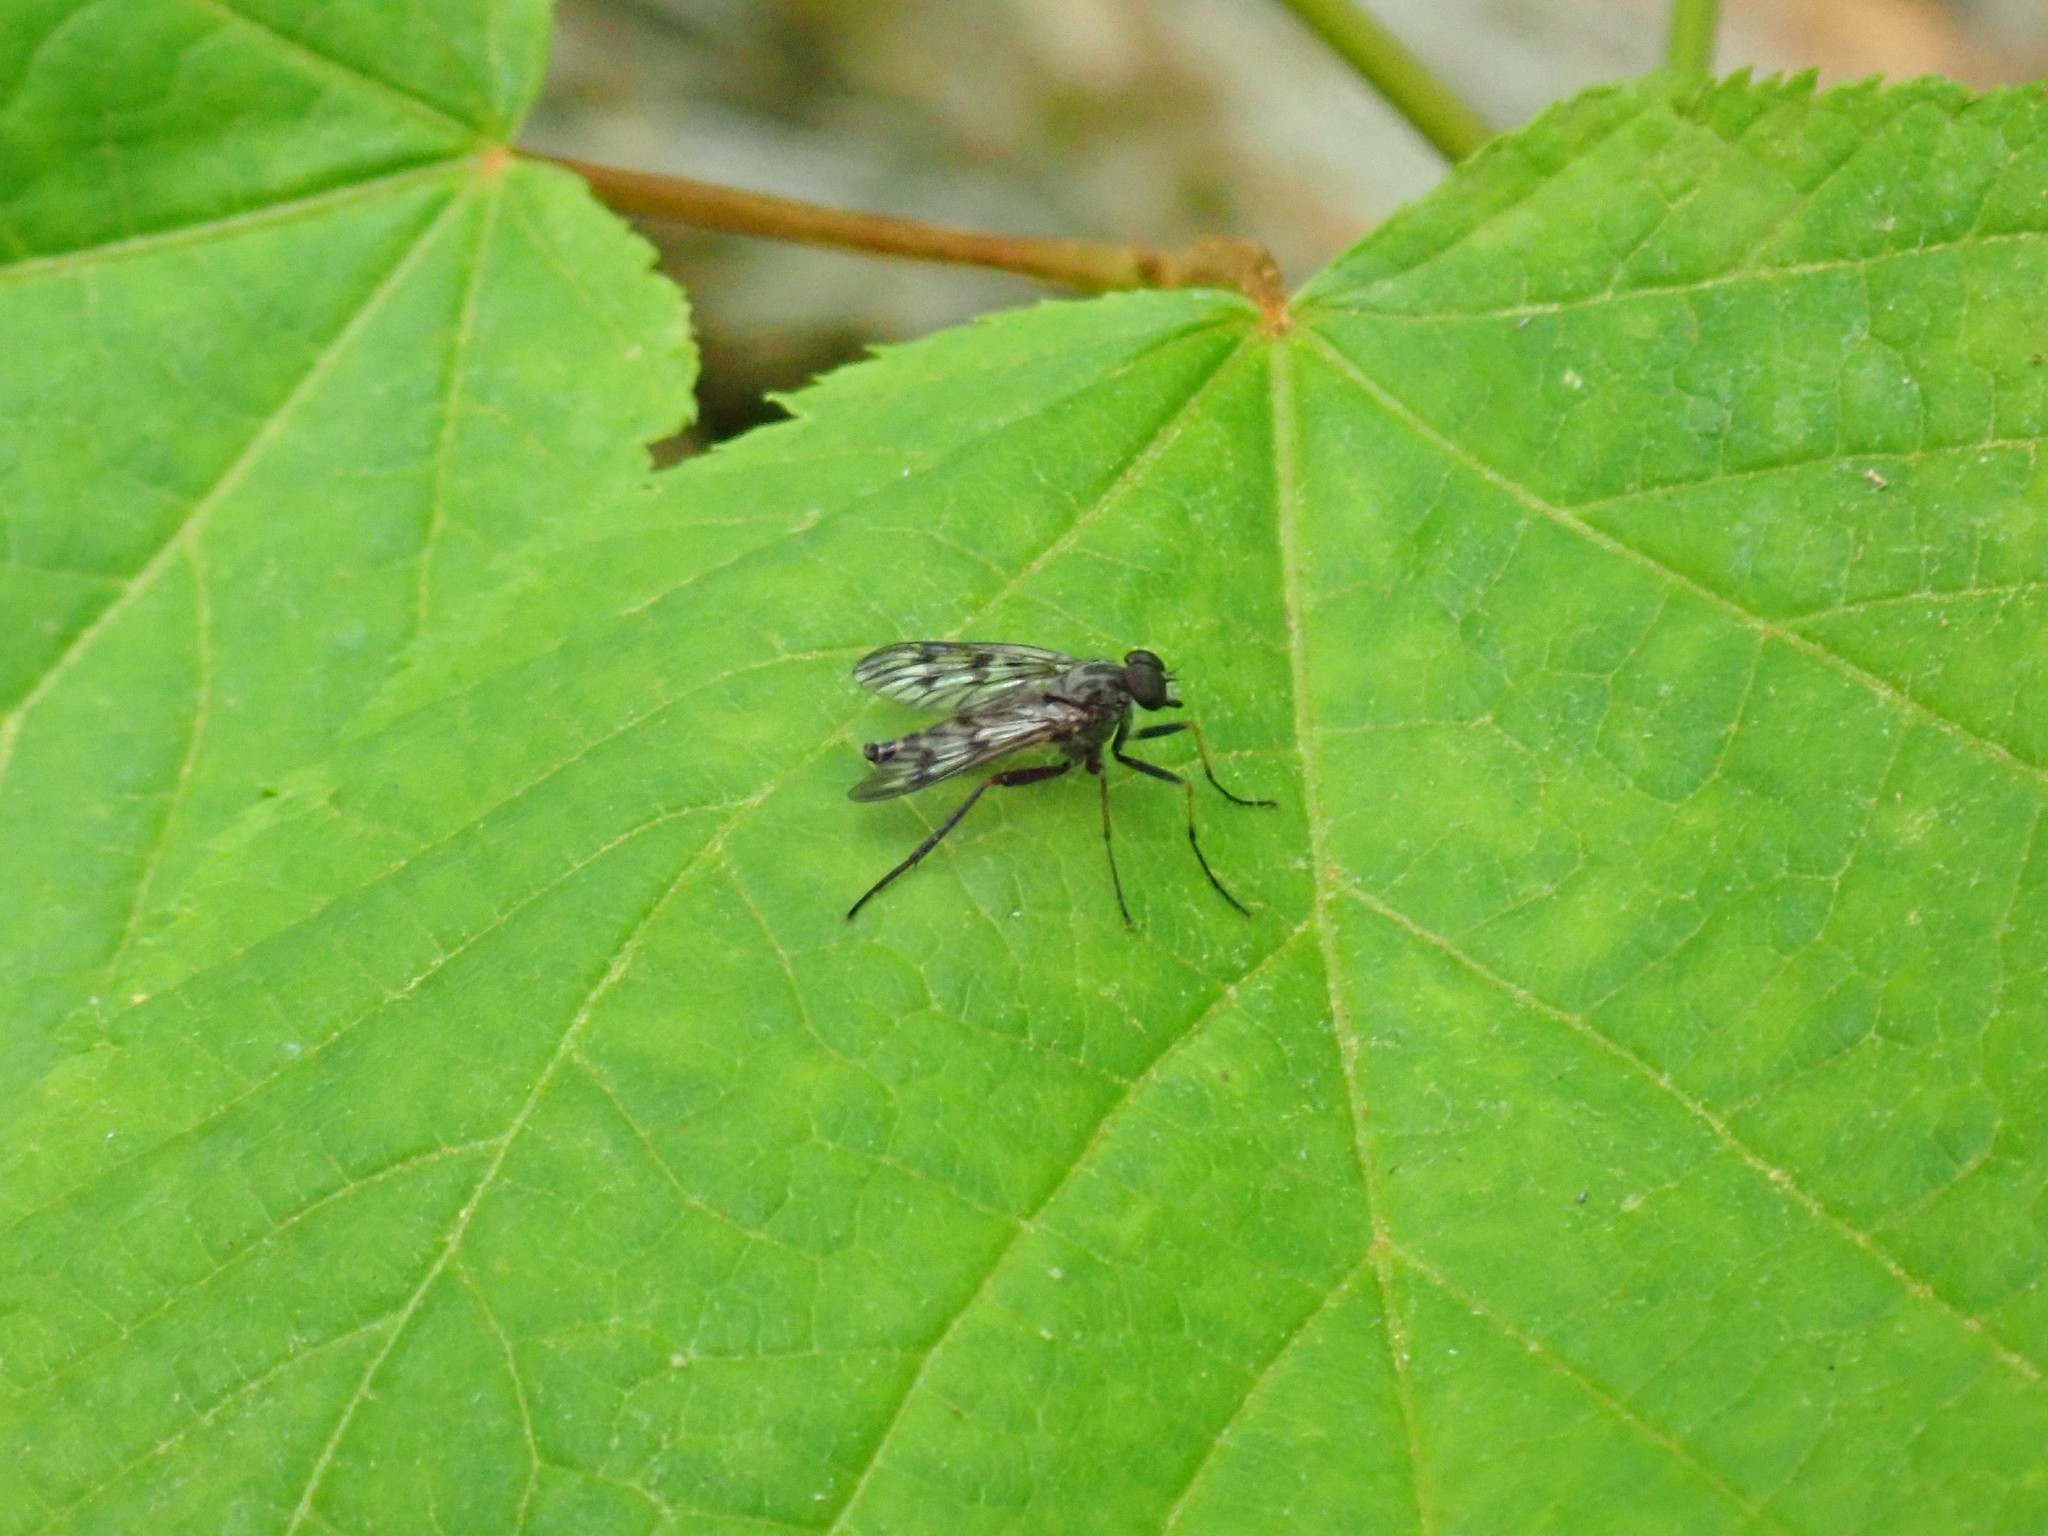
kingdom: Animalia
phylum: Arthropoda
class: Insecta
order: Diptera
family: Rhagionidae
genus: Rhagio
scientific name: Rhagio mystaceus
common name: Common snipe fly
